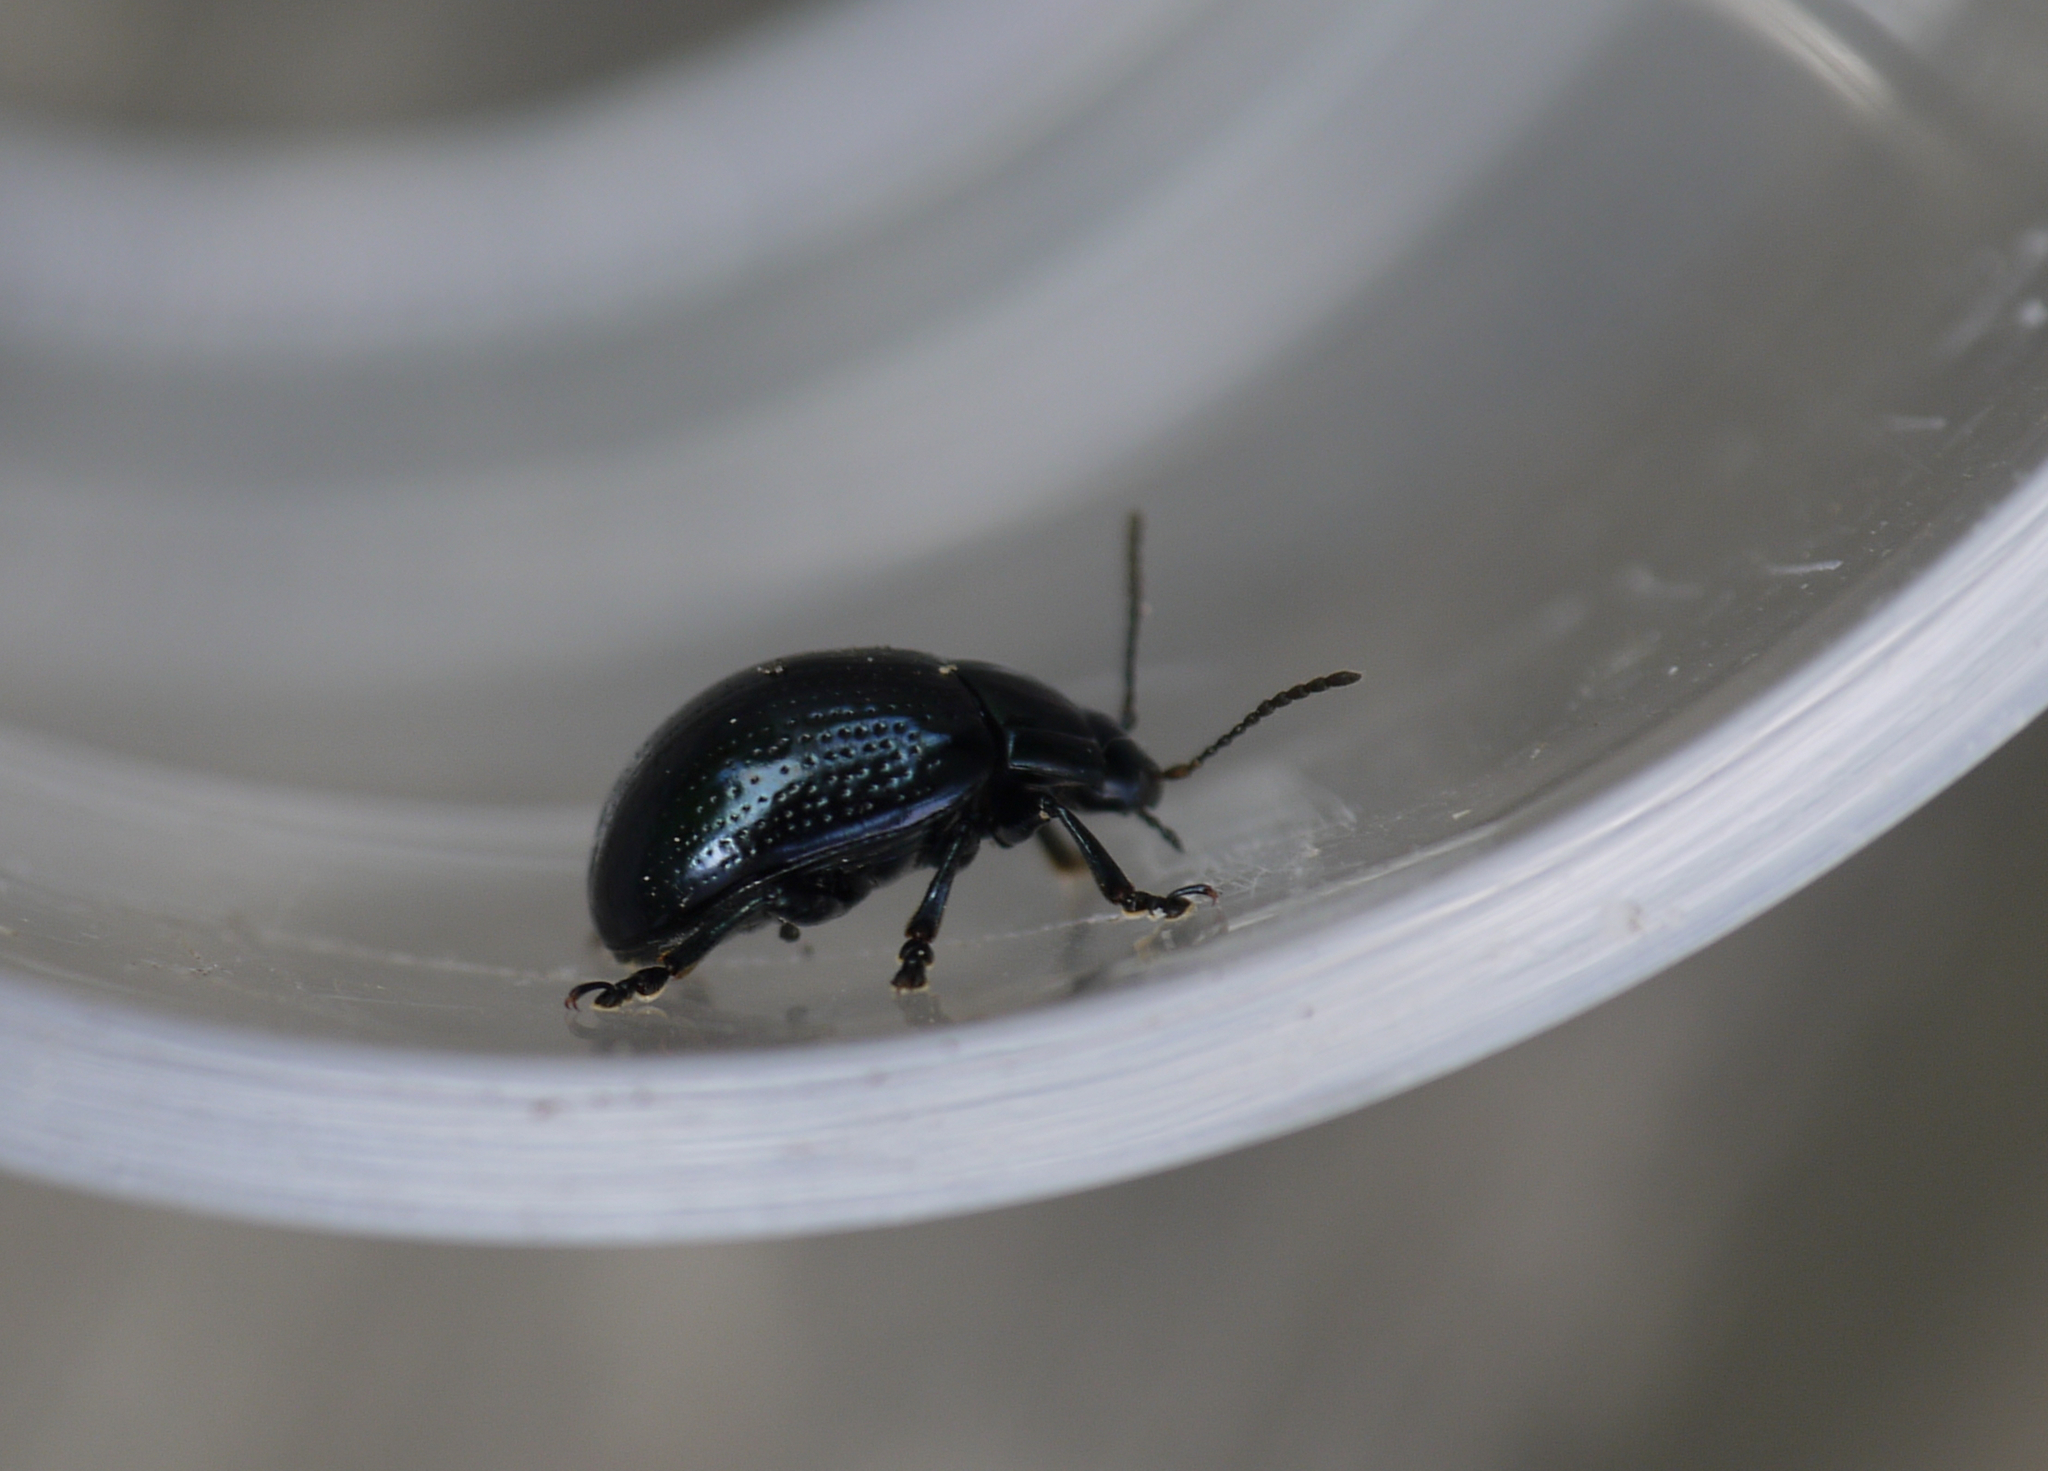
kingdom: Animalia
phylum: Arthropoda
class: Insecta
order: Coleoptera
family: Chrysomelidae
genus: Chrysolina
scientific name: Chrysolina oricalcia
